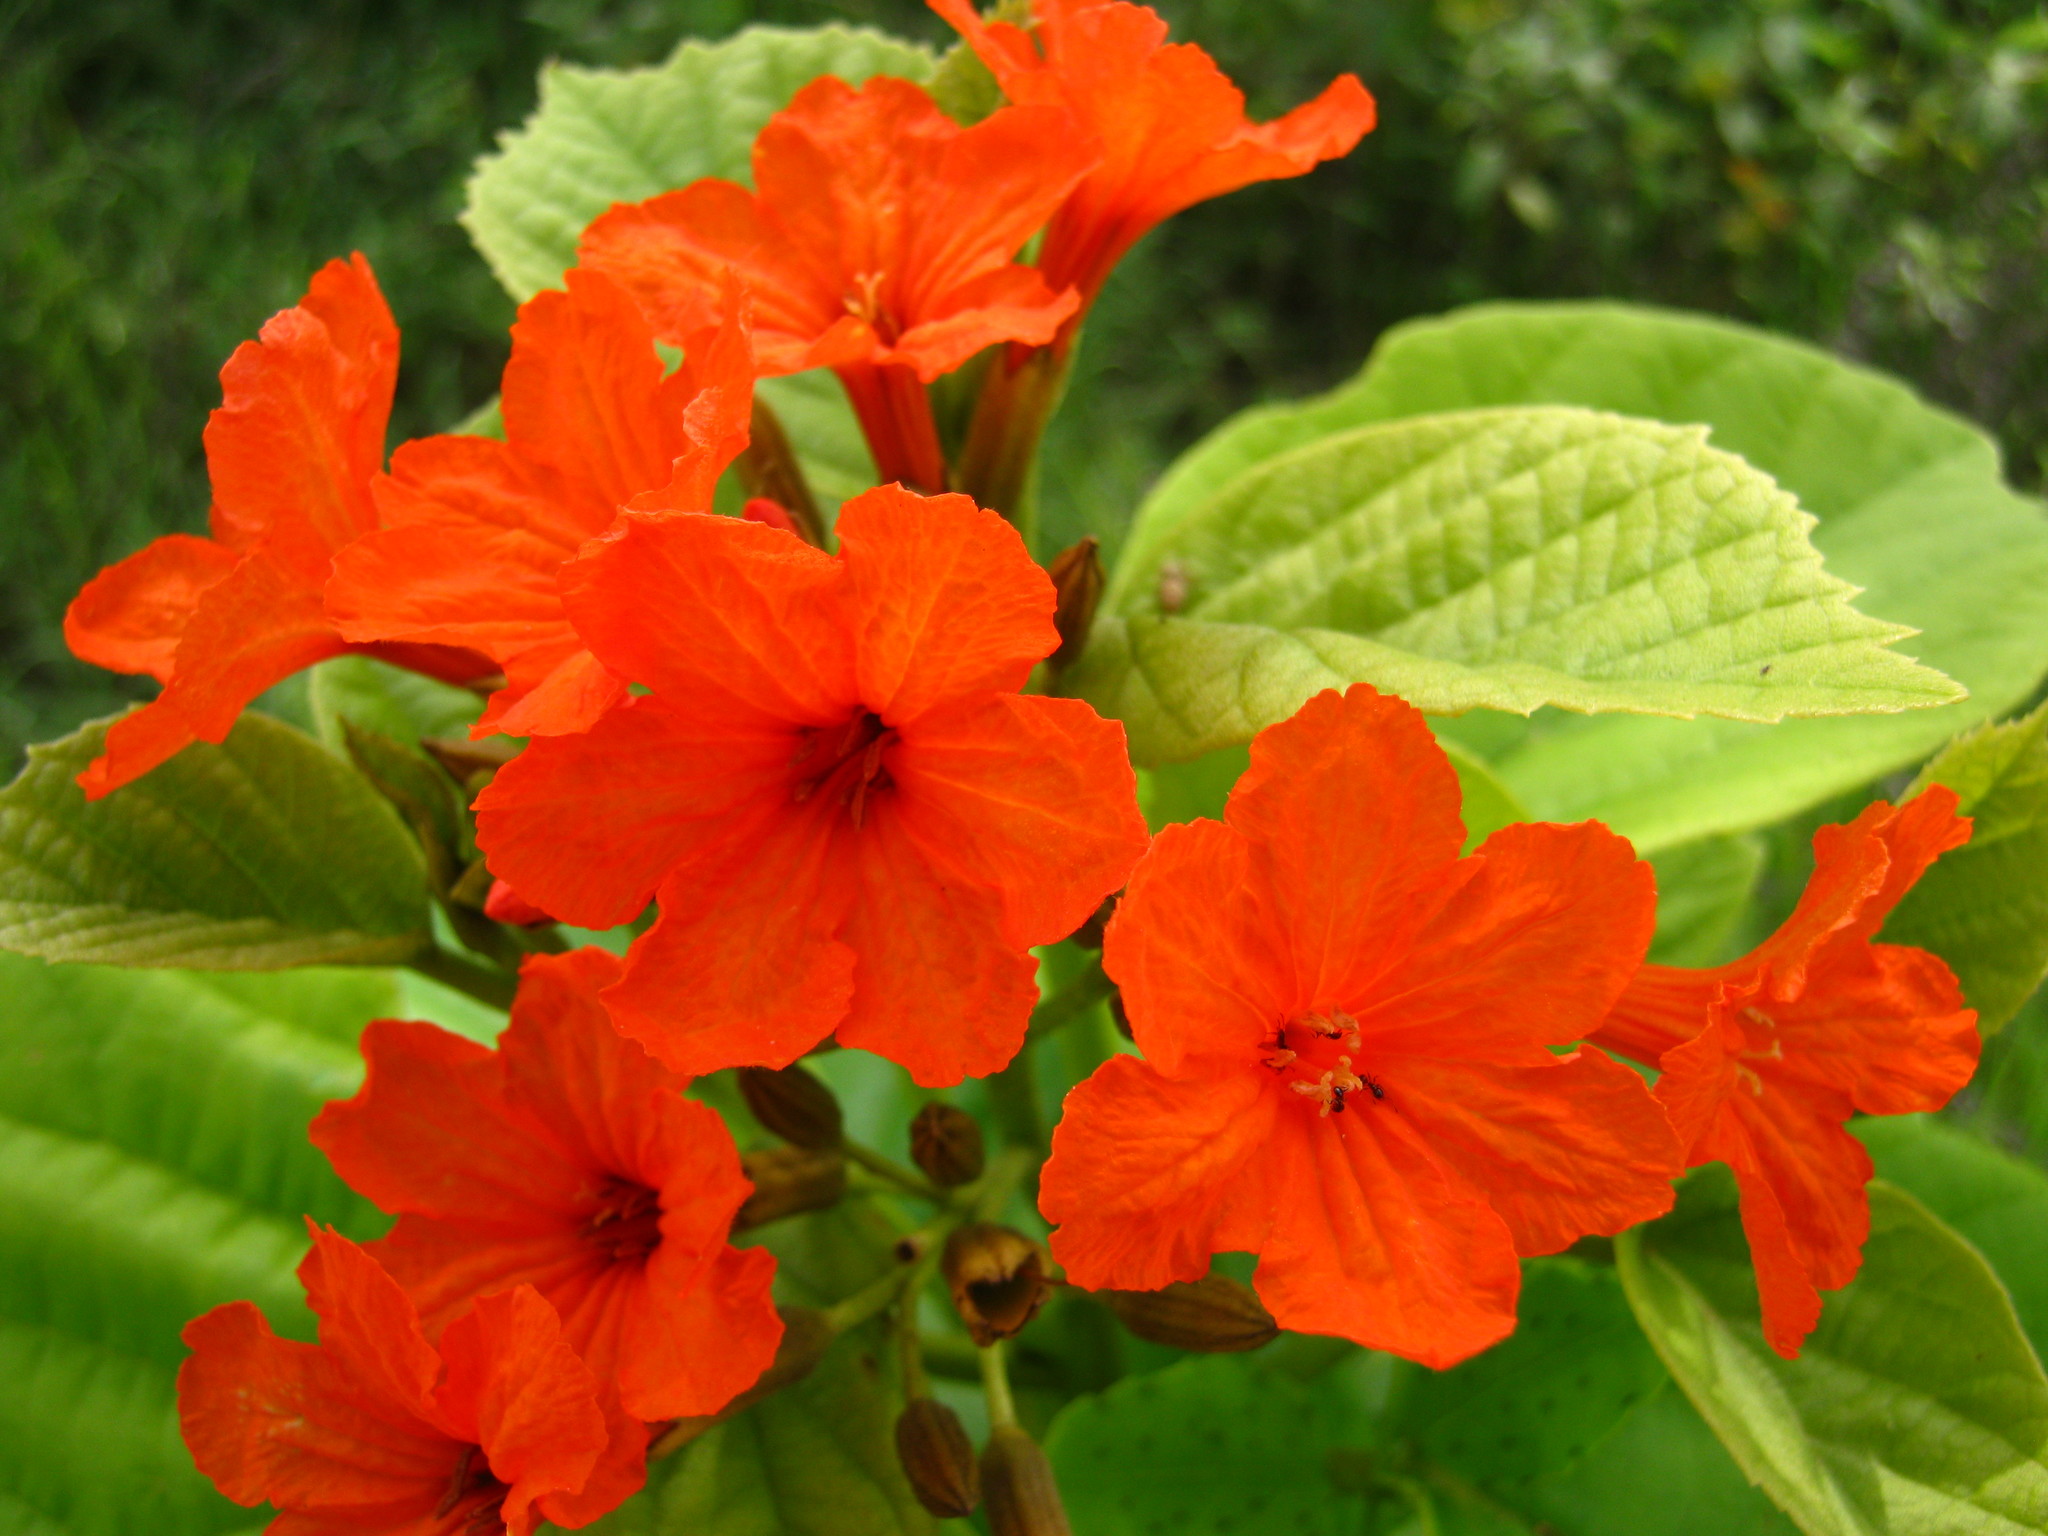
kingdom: Plantae
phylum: Tracheophyta
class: Magnoliopsida
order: Boraginales
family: Cordiaceae
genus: Cordia
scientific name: Cordia sebestena
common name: Largeleaf geigertree
